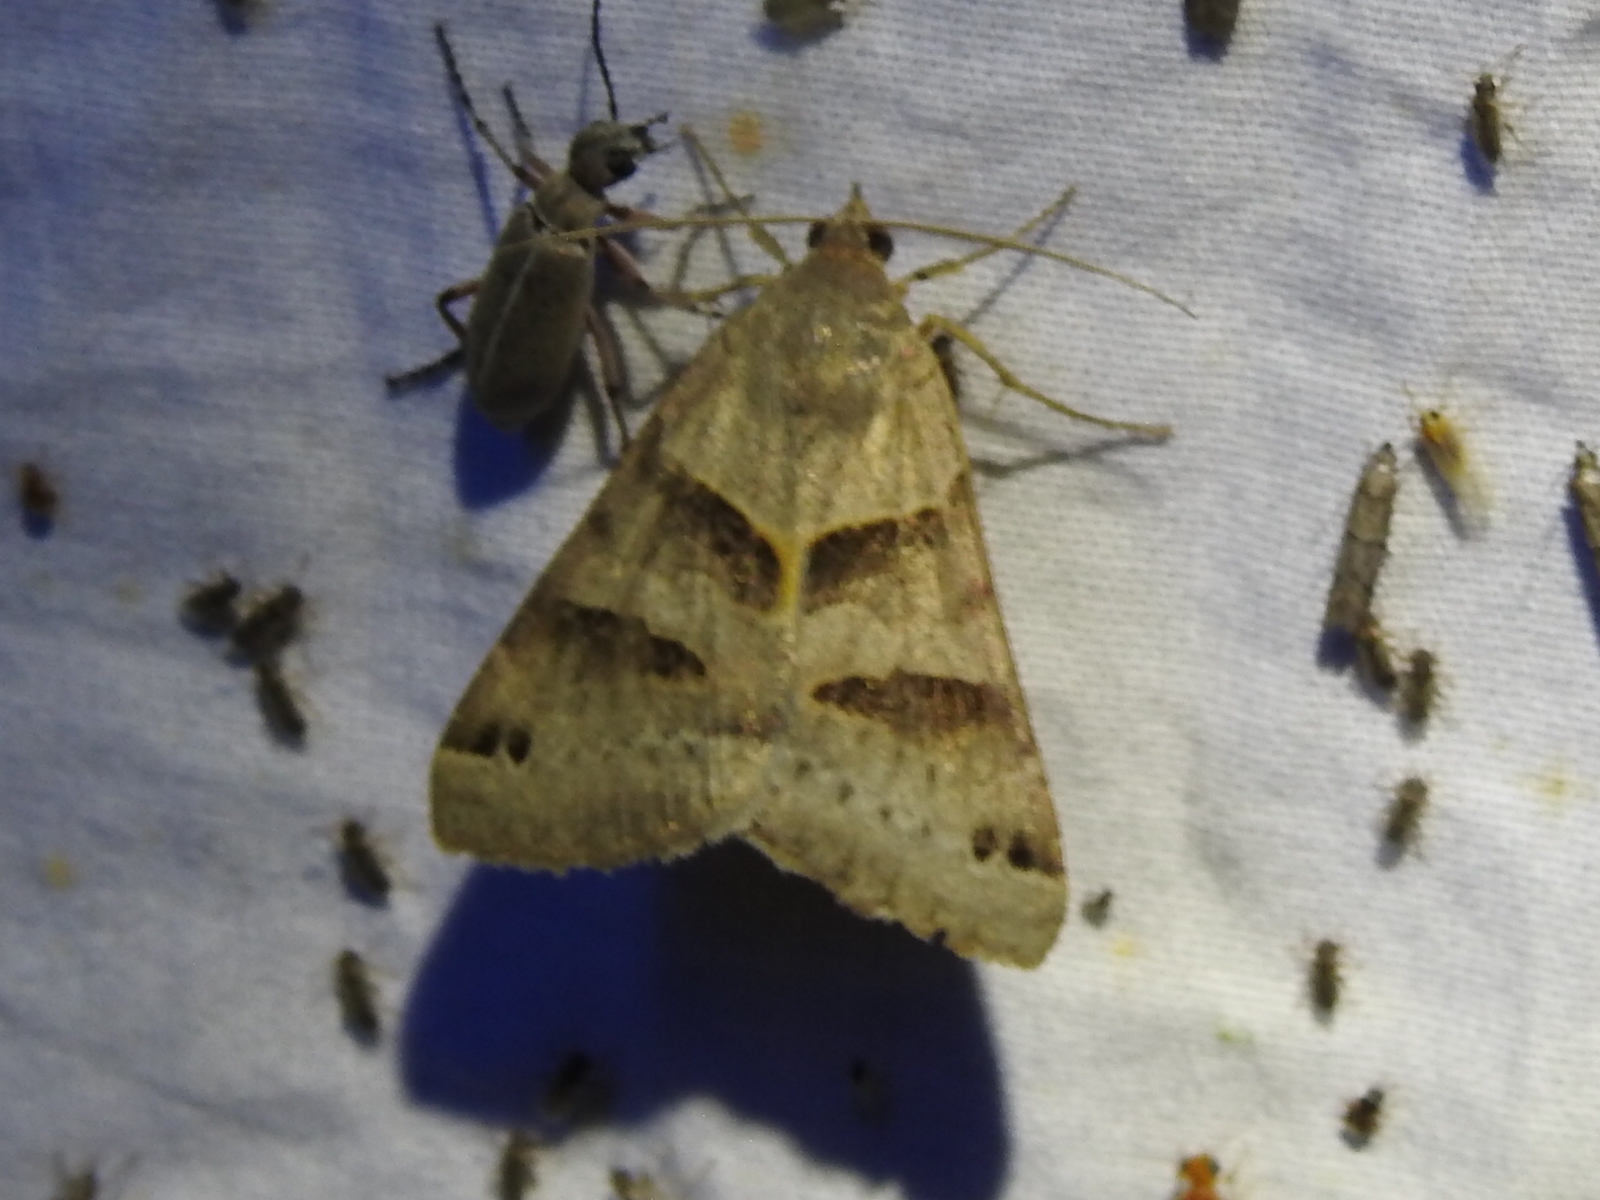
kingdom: Animalia
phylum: Arthropoda
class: Insecta
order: Lepidoptera
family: Erebidae
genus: Caenurgina
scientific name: Caenurgina erechtea
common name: Forage looper moth
